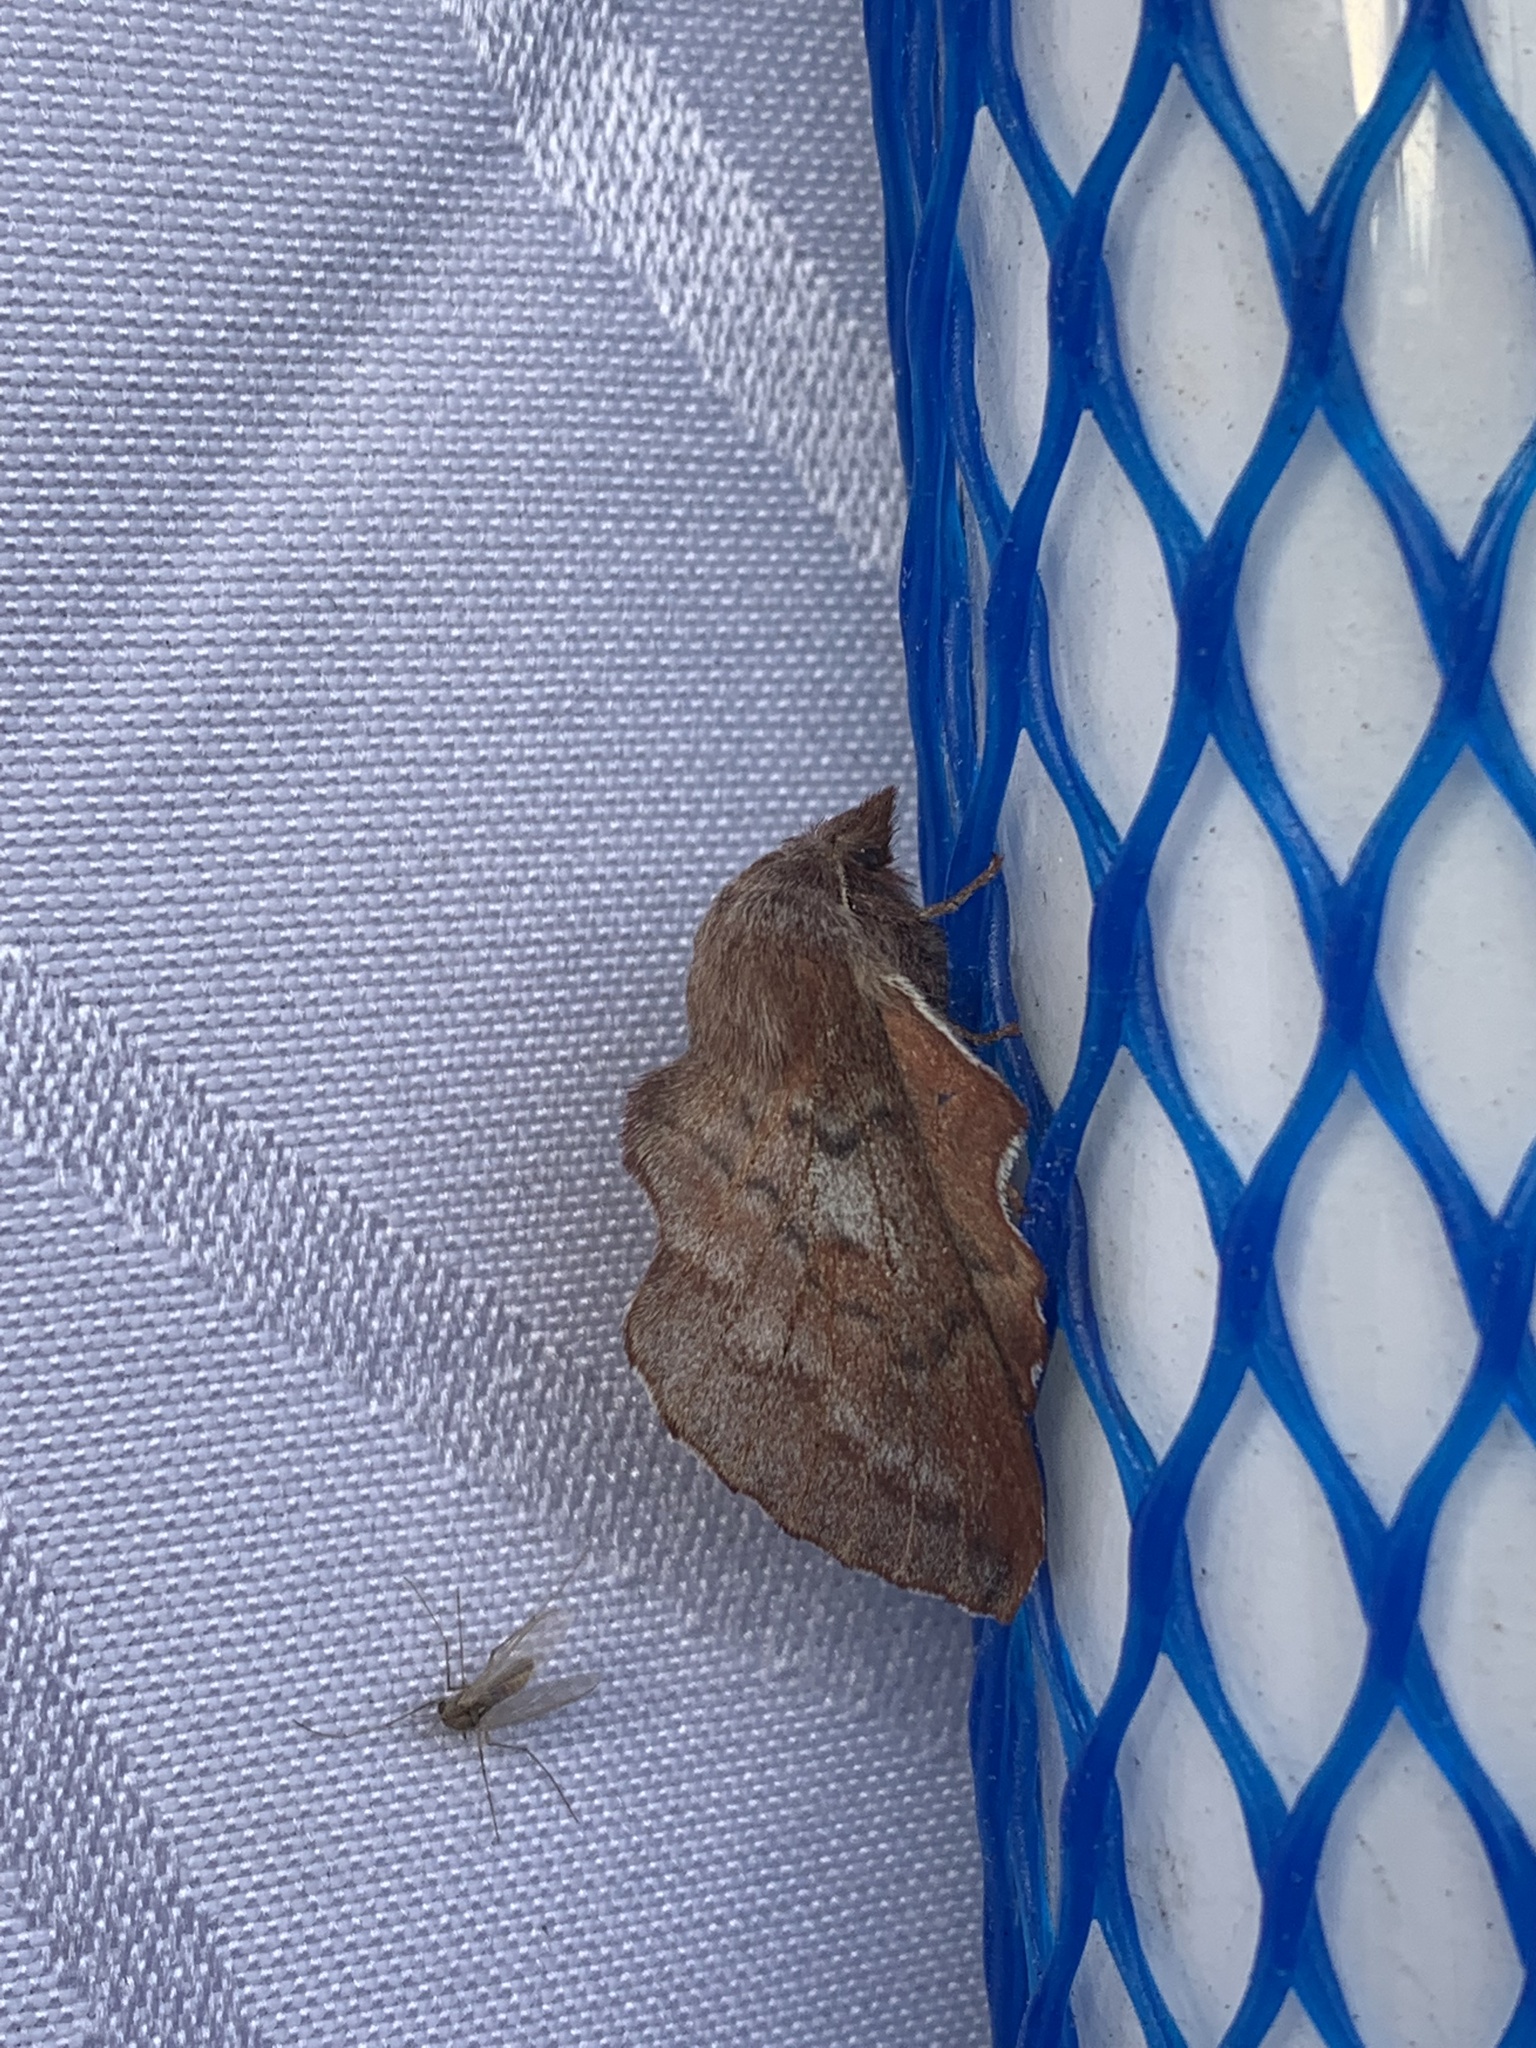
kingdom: Animalia
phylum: Arthropoda
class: Insecta
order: Lepidoptera
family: Lasiocampidae
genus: Phyllodesma
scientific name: Phyllodesma americana
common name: American lappet moth
